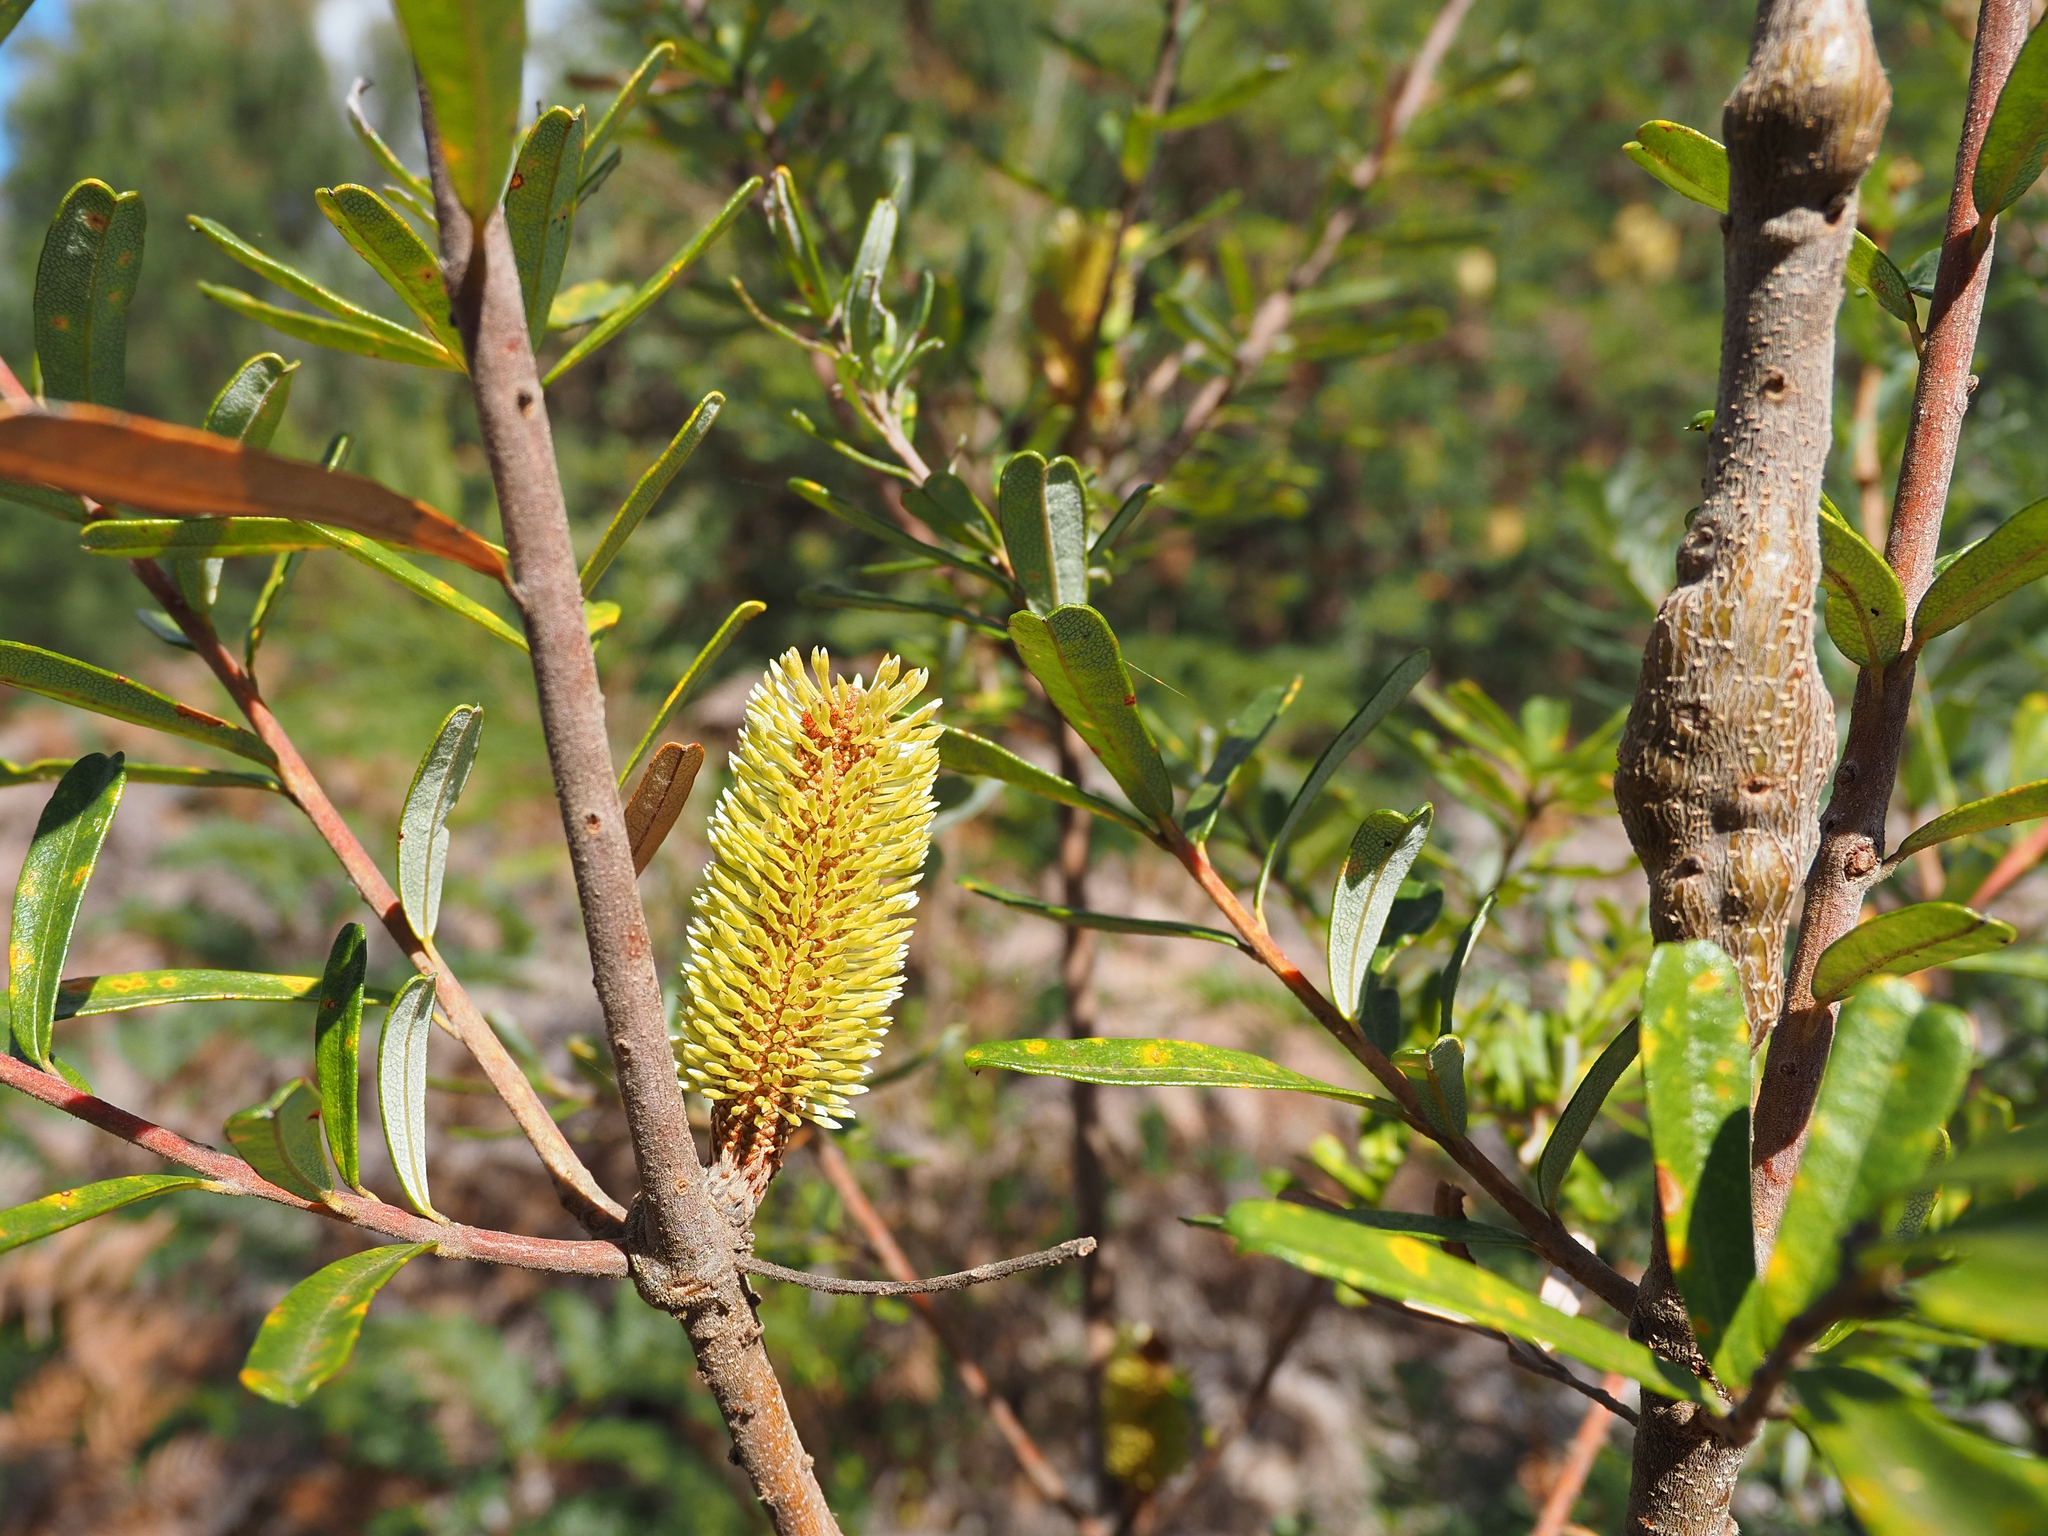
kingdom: Plantae
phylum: Tracheophyta
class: Magnoliopsida
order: Proteales
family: Proteaceae
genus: Banksia
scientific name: Banksia marginata
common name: Silver banksia
